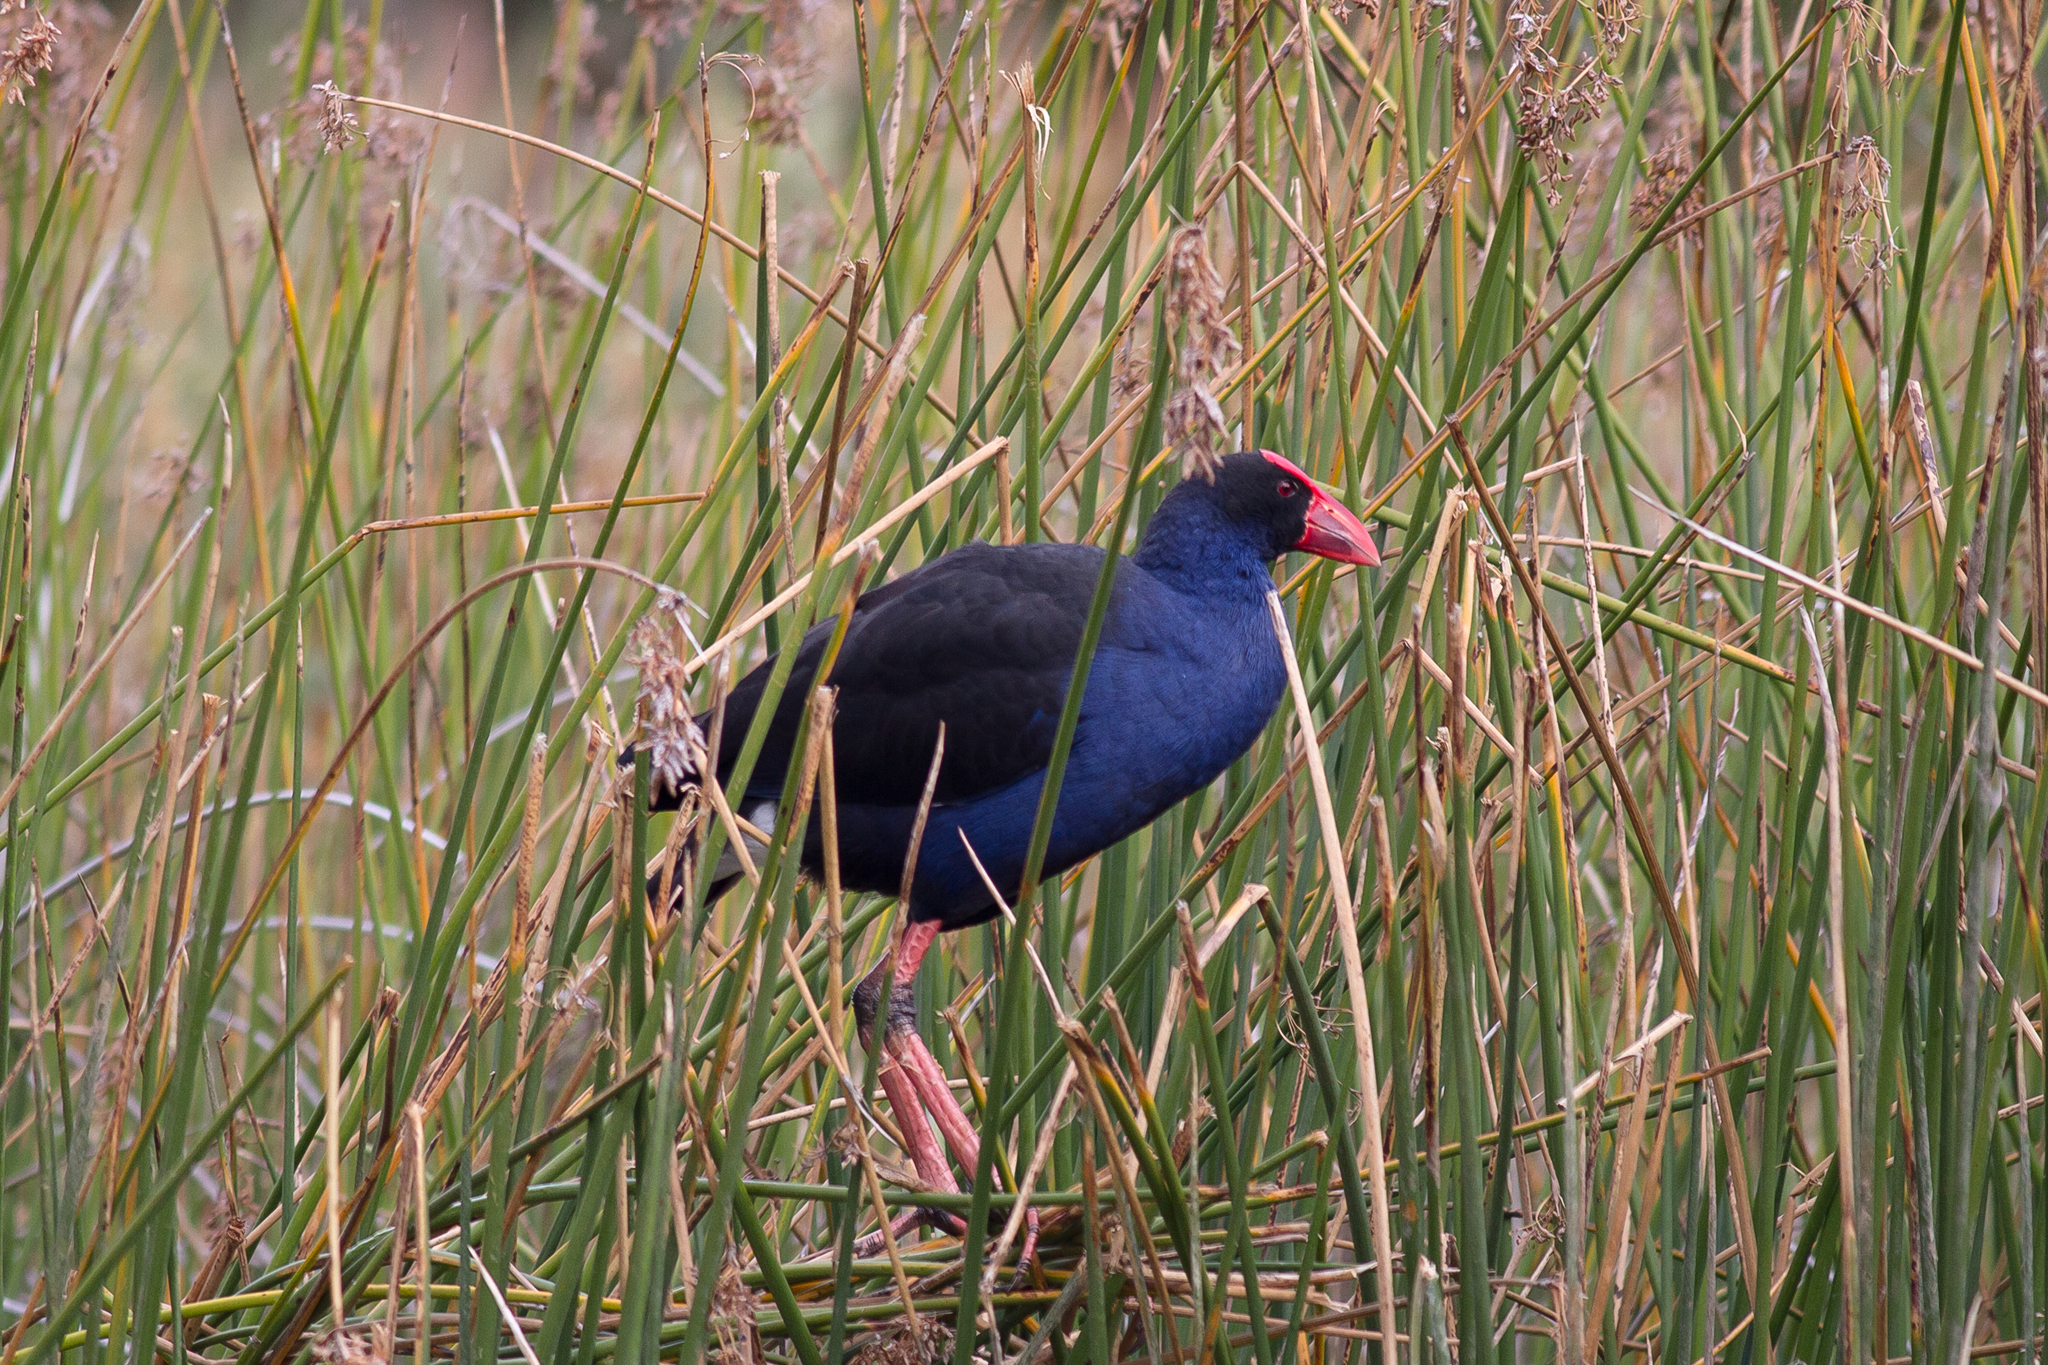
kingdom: Animalia
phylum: Chordata
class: Aves
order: Gruiformes
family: Rallidae
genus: Porphyrio
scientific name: Porphyrio melanotus
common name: Australasian swamphen
